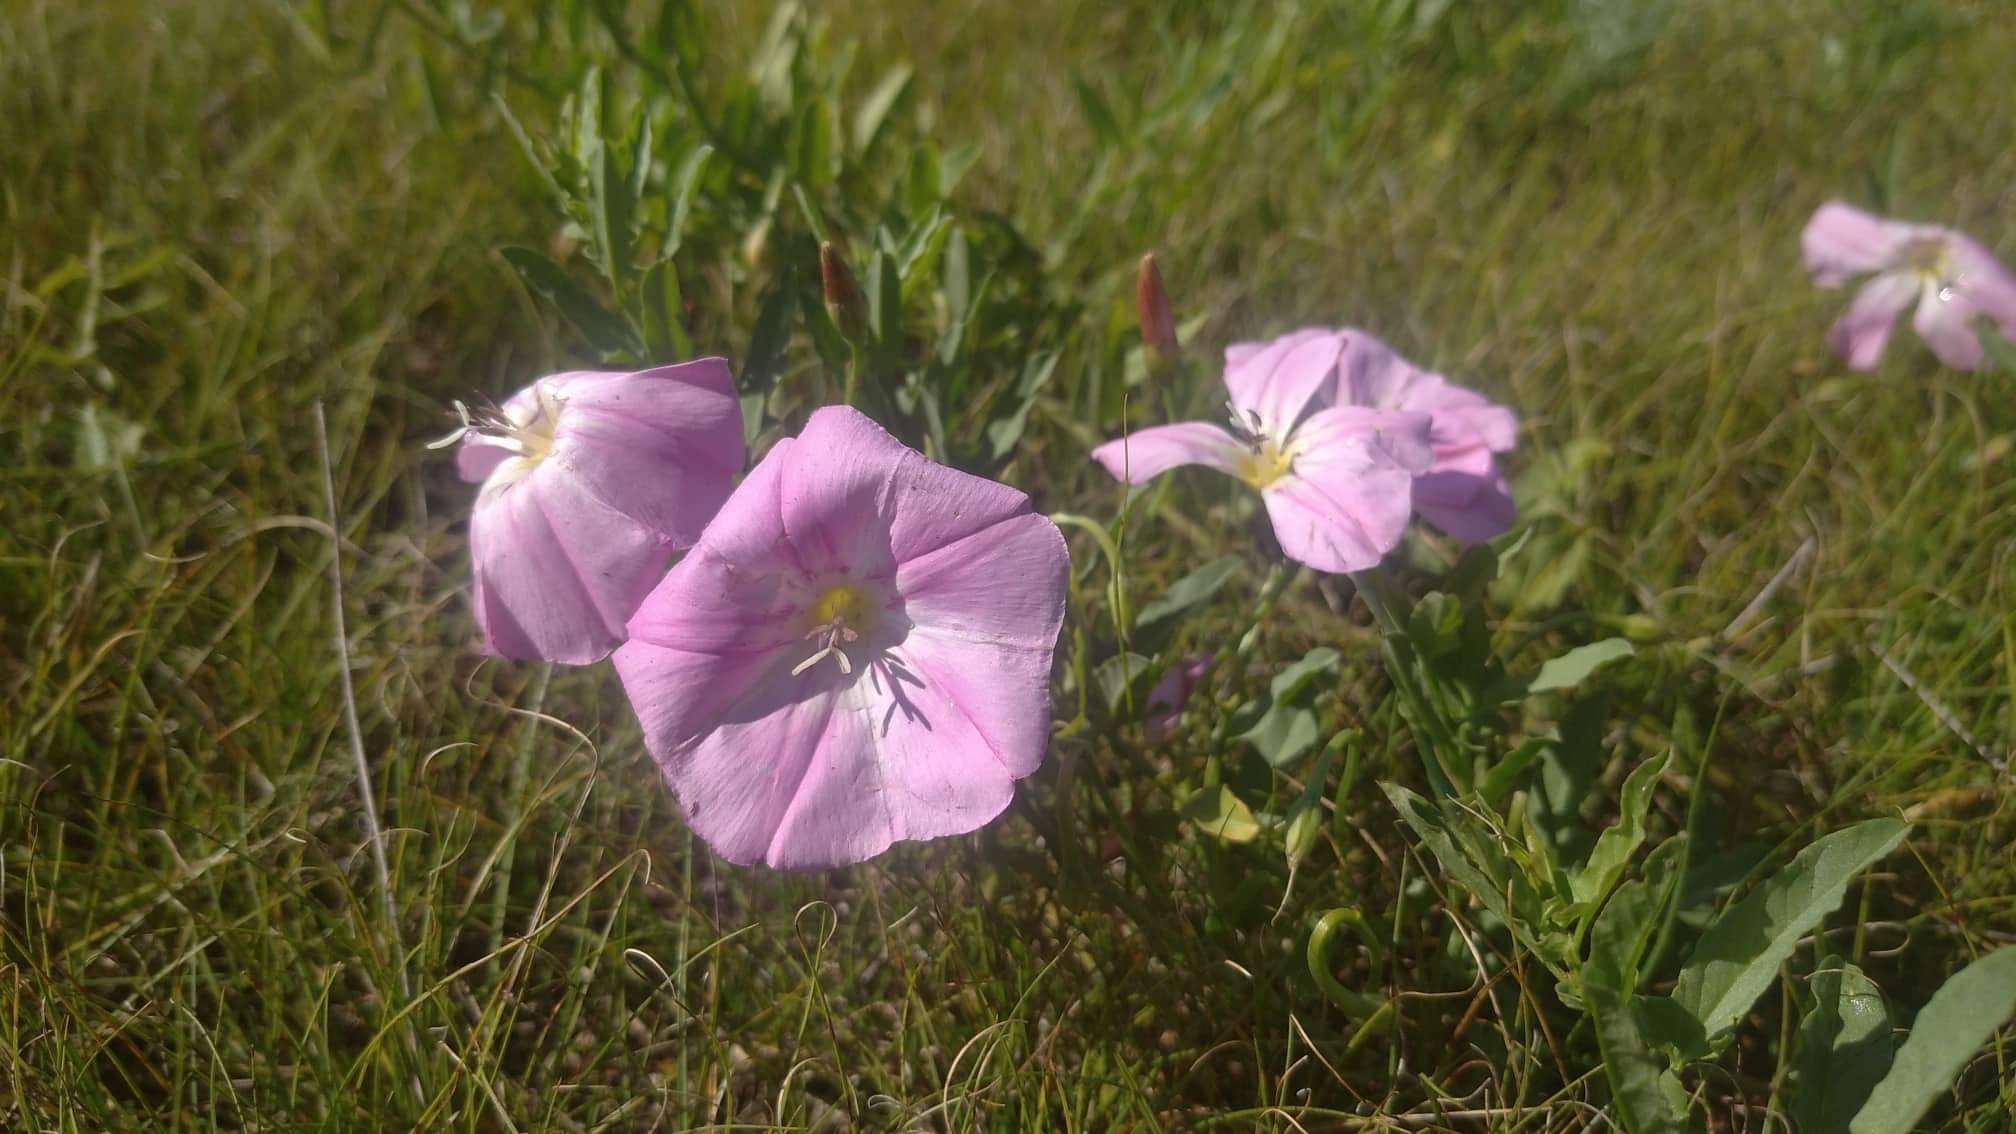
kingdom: Plantae
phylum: Tracheophyta
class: Magnoliopsida
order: Solanales
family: Convolvulaceae
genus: Convolvulus
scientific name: Convolvulus arvensis
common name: Field bindweed
